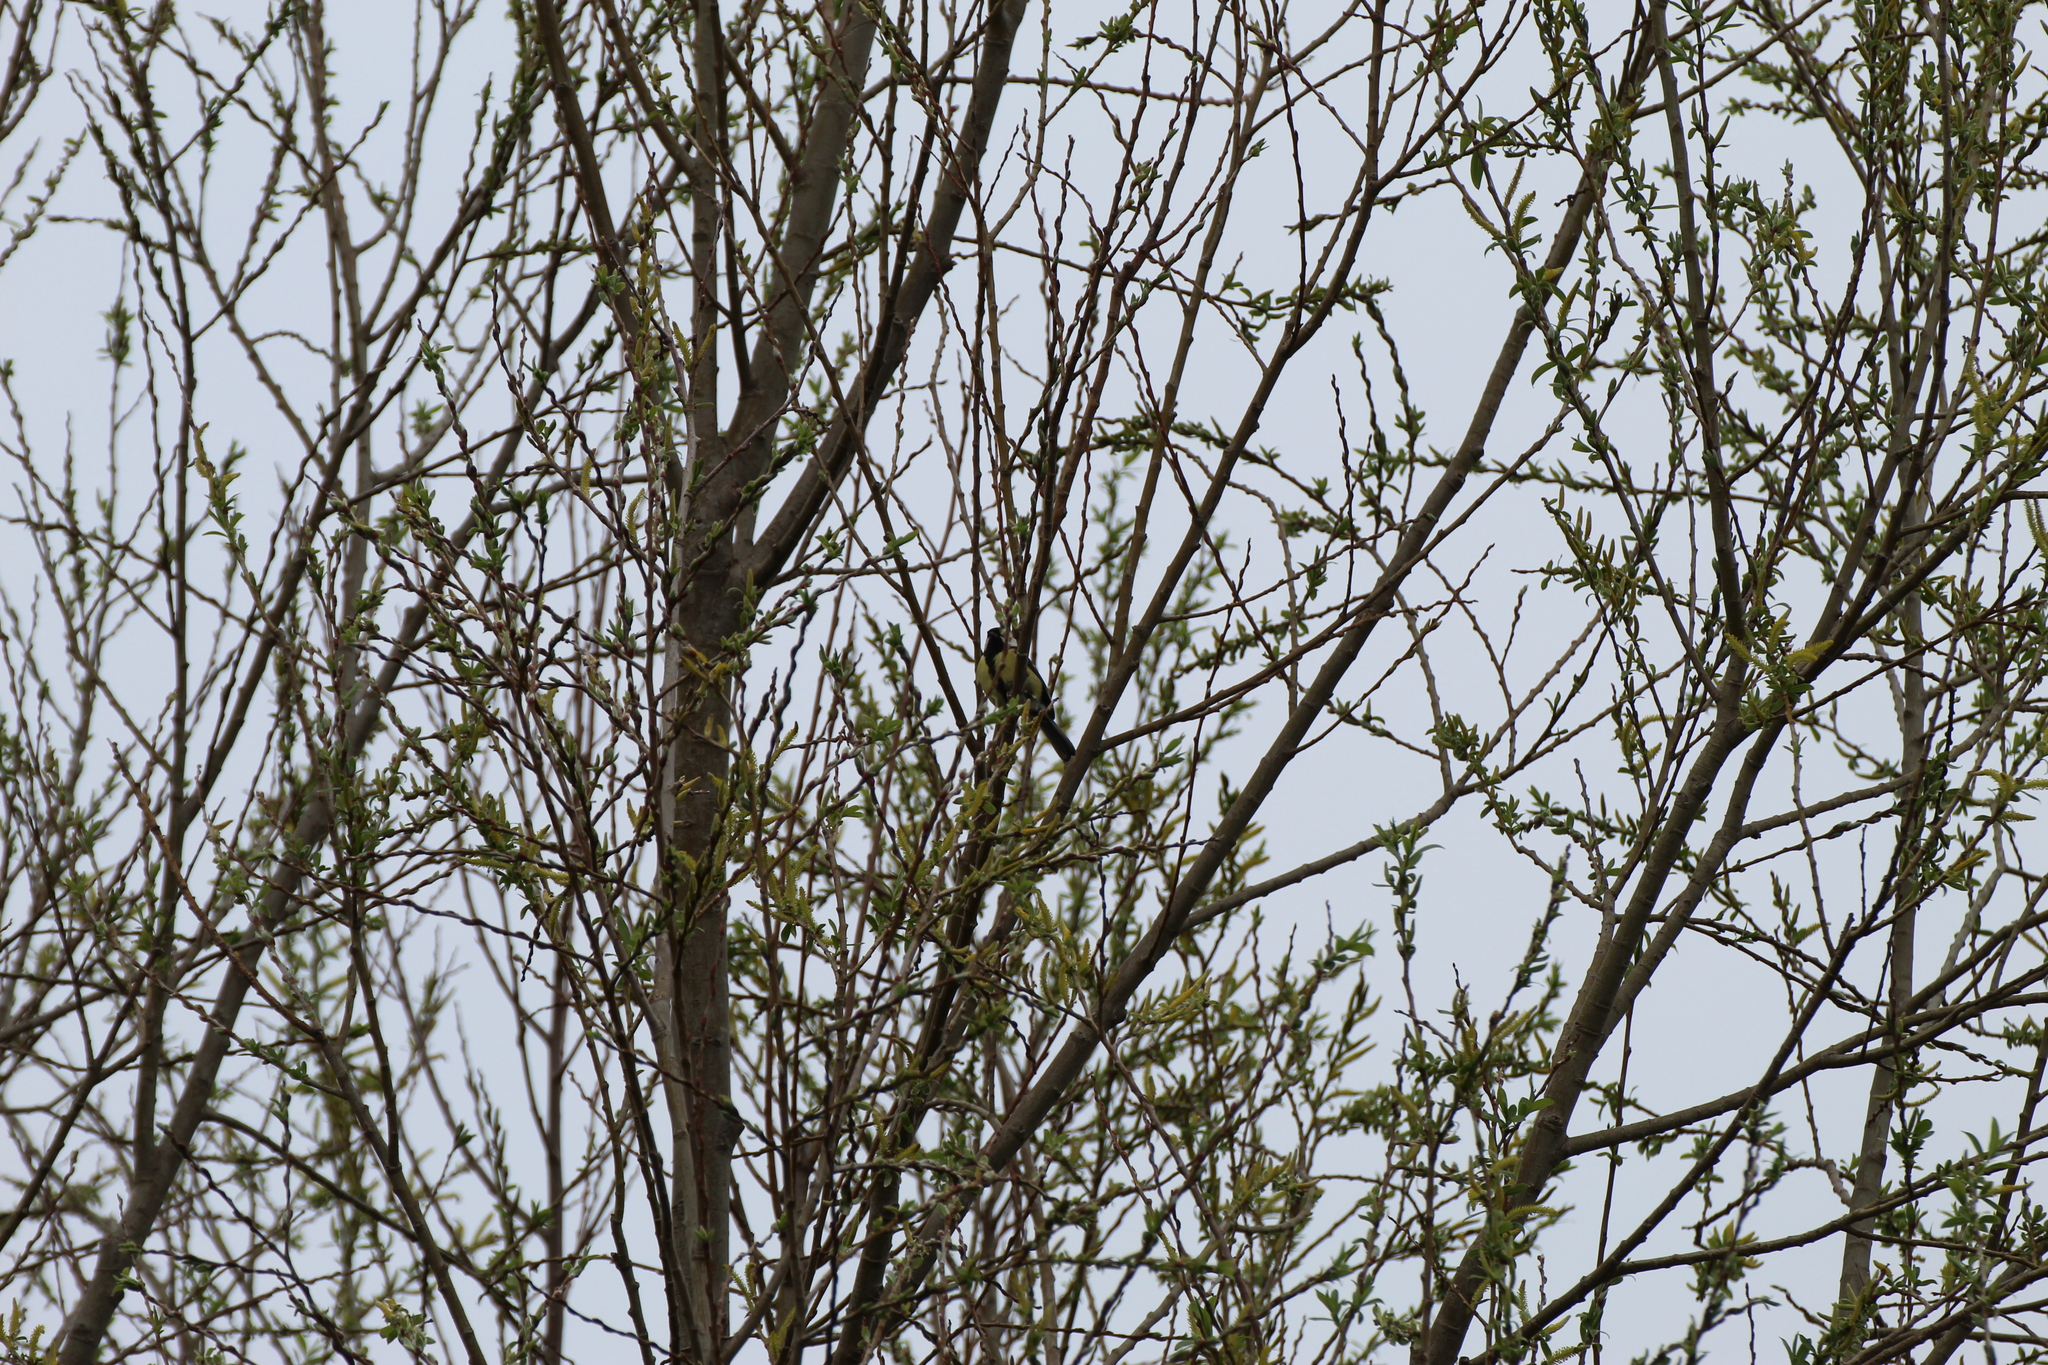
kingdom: Animalia
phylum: Chordata
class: Aves
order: Passeriformes
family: Paridae
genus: Parus
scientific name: Parus major
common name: Great tit
